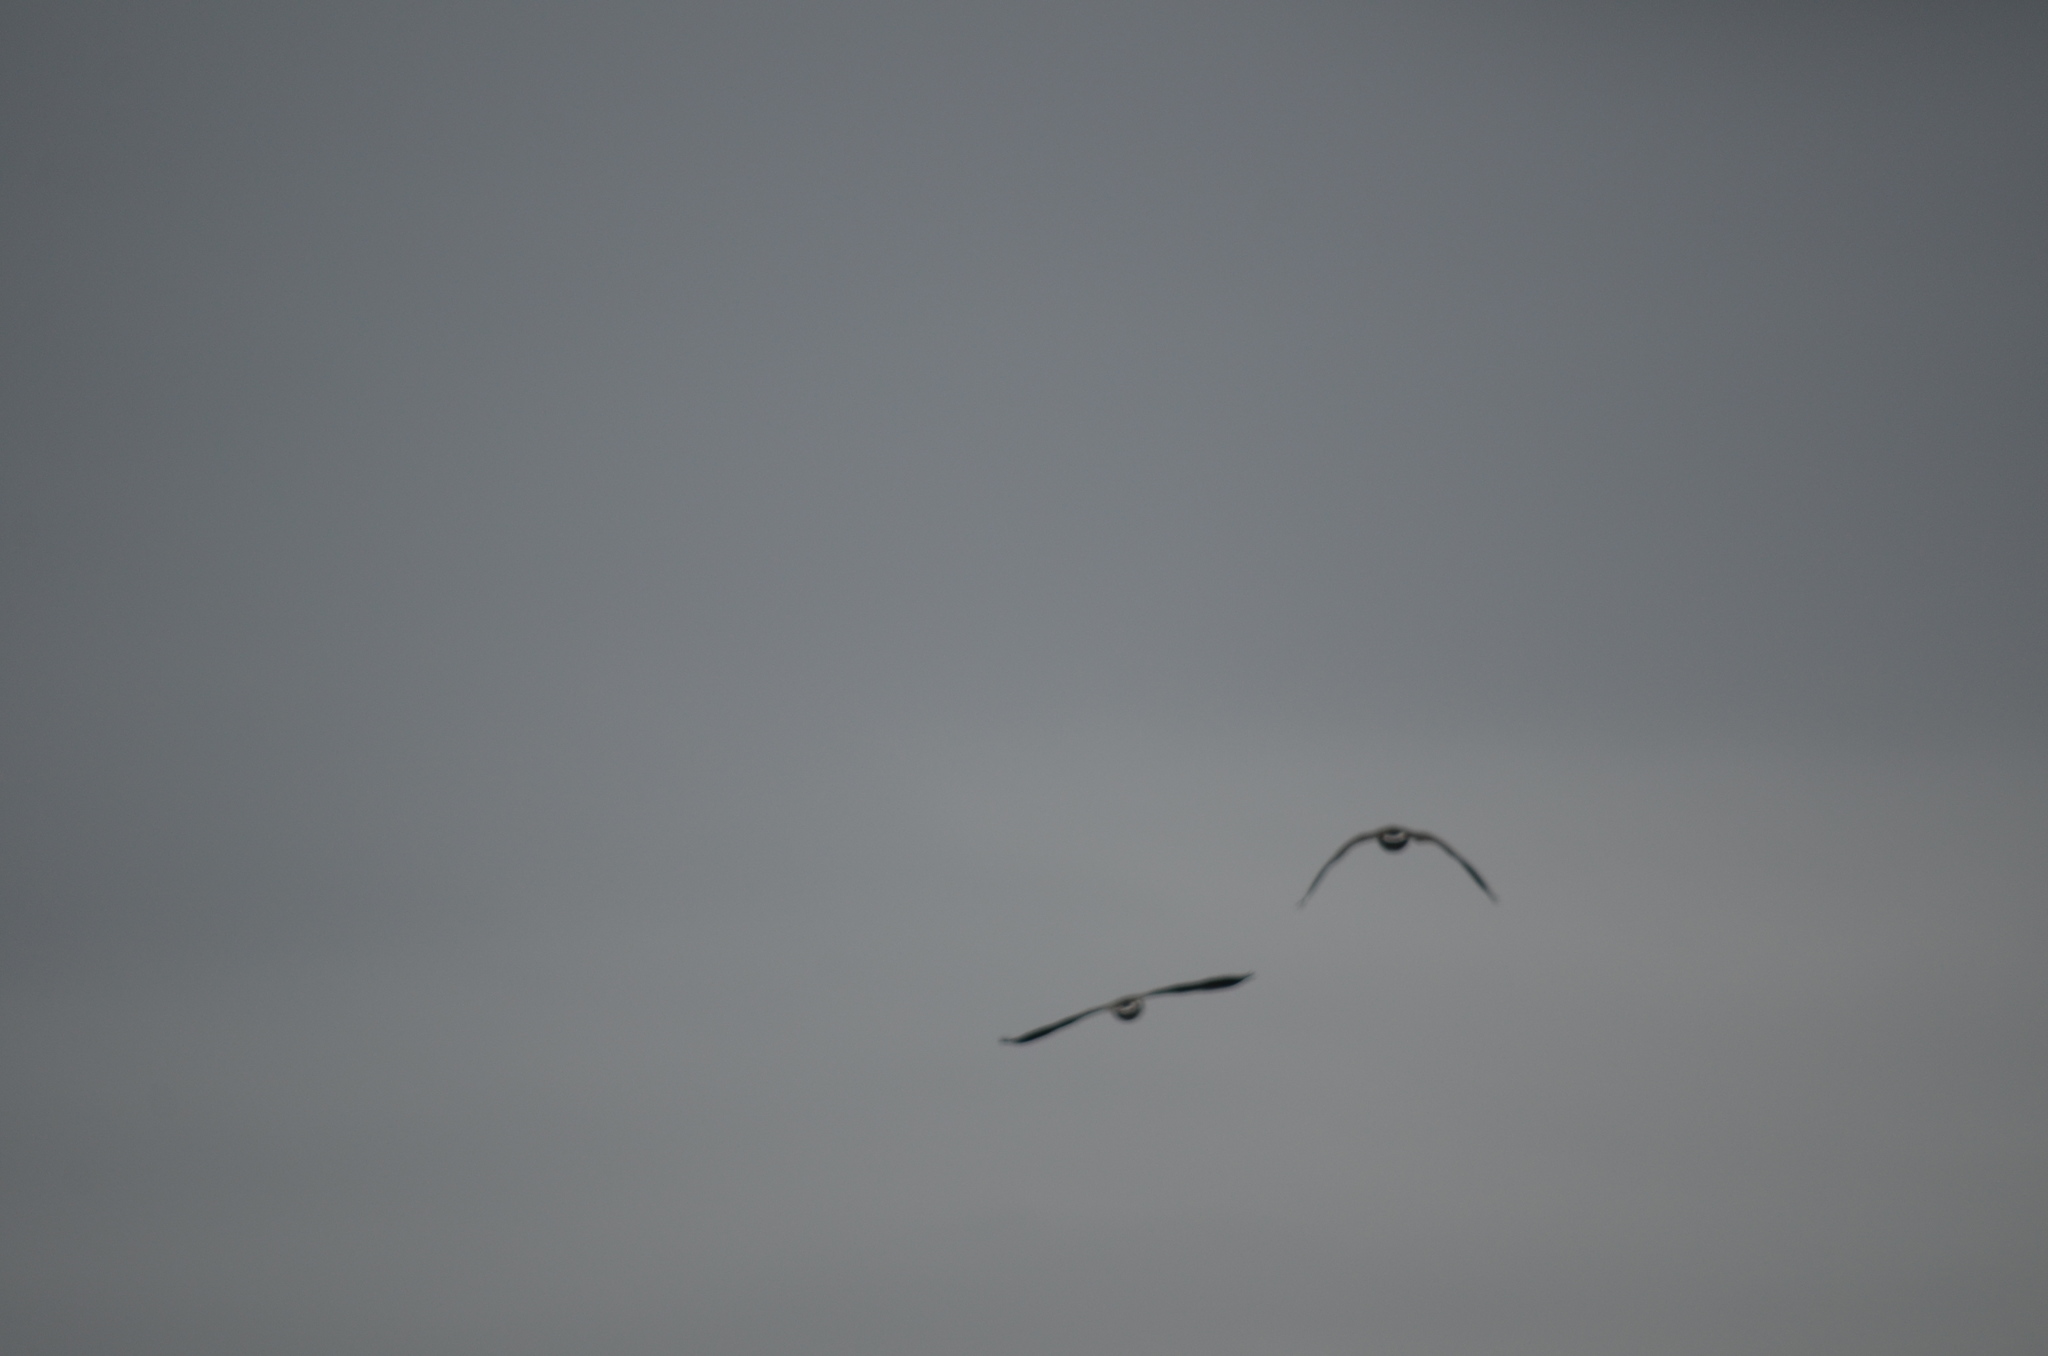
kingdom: Animalia
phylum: Chordata
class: Aves
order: Anseriformes
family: Anatidae
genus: Branta
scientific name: Branta canadensis
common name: Canada goose
